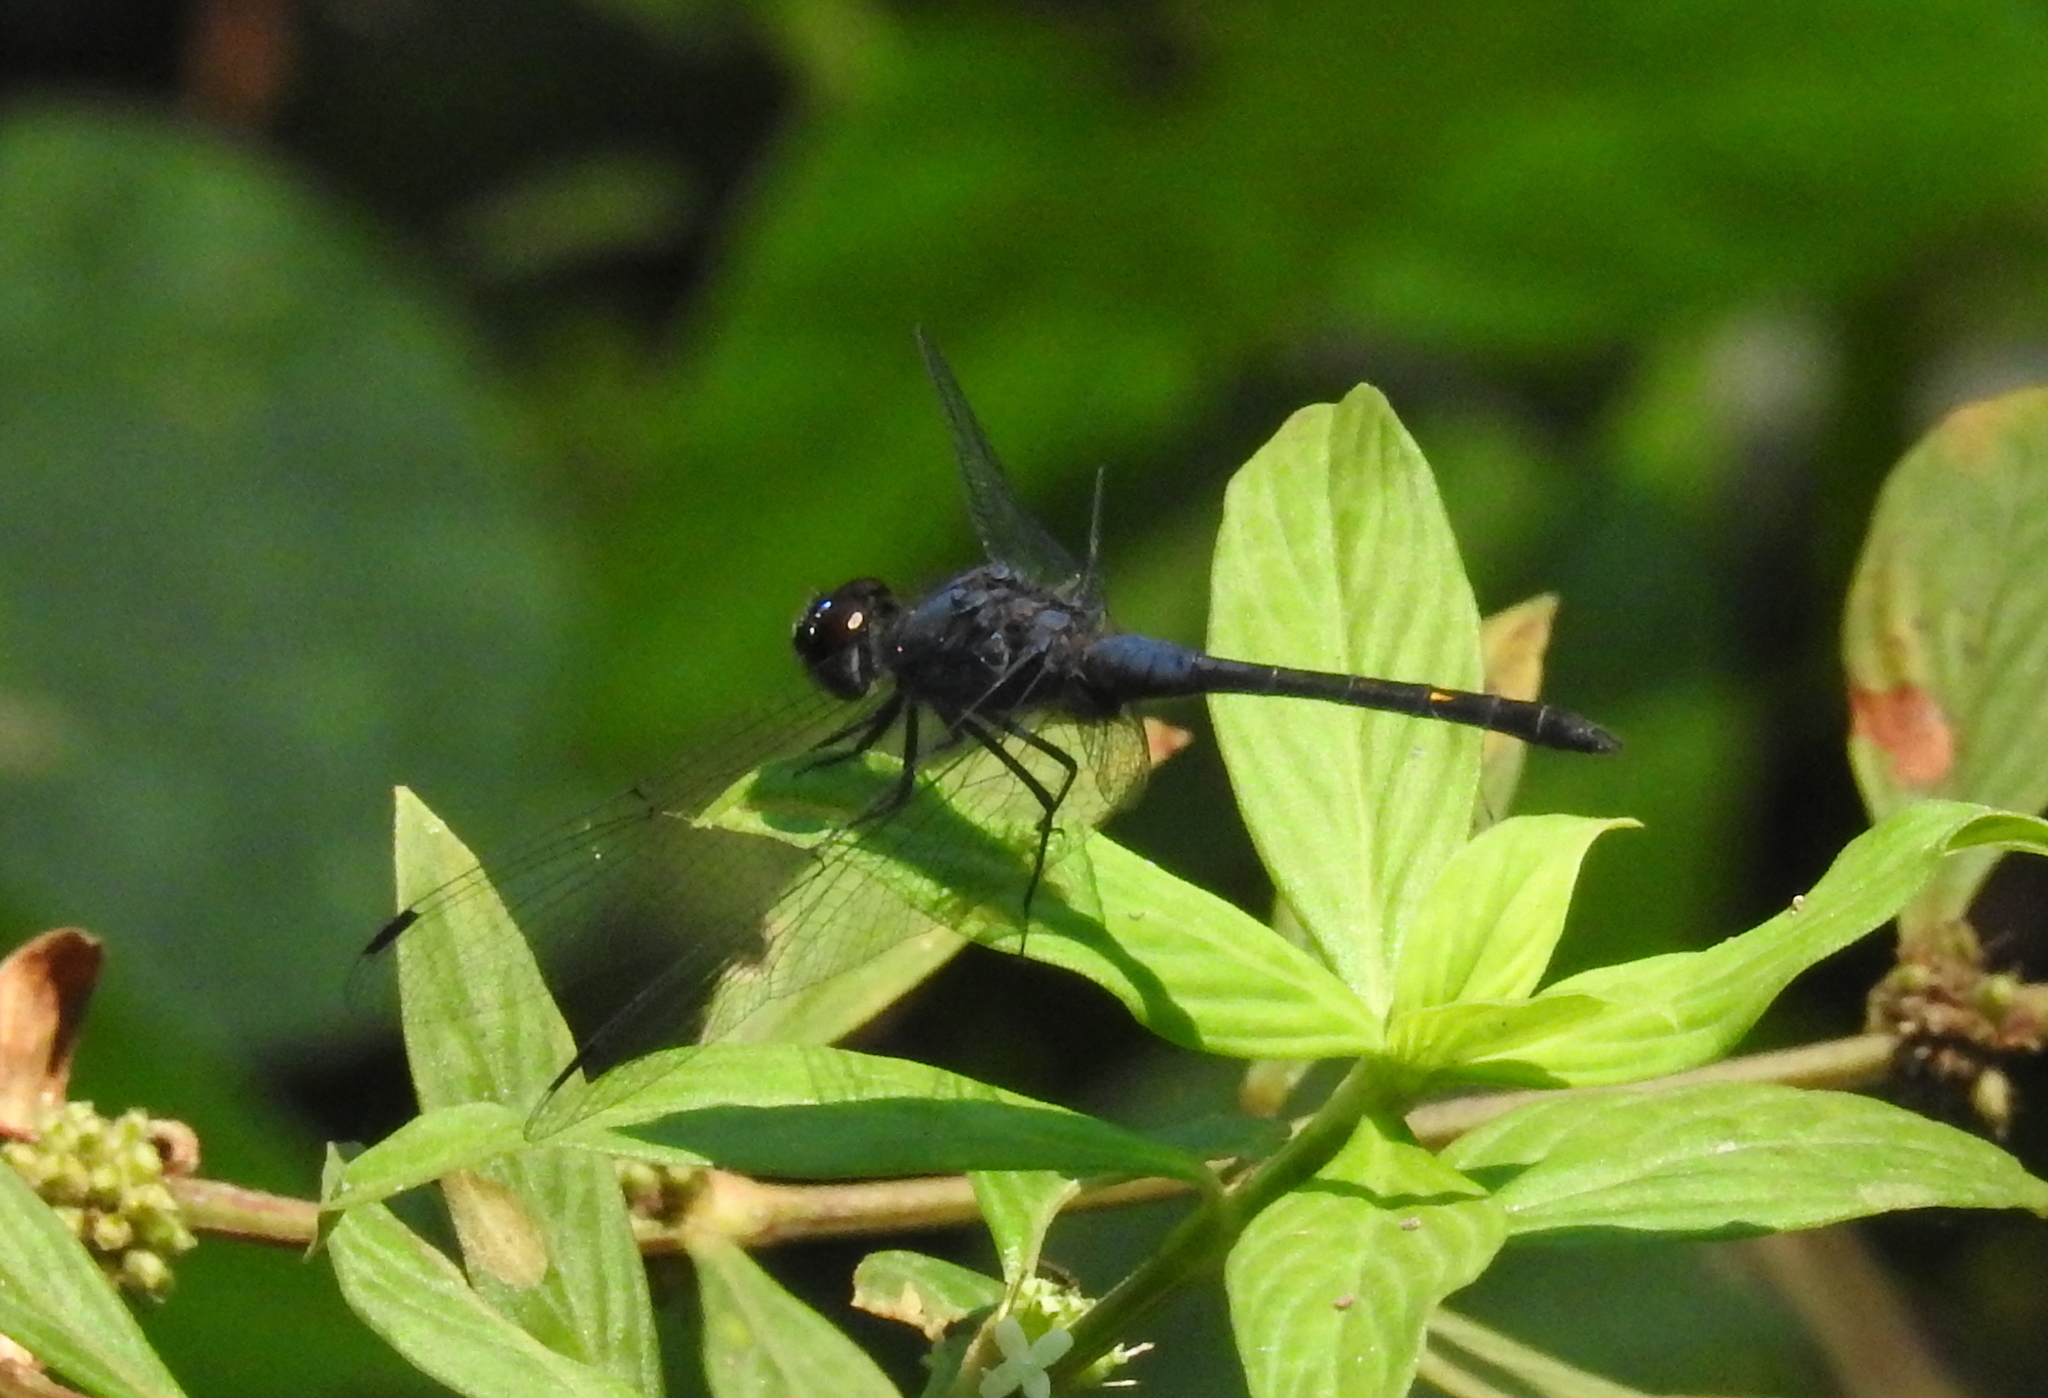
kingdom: Animalia
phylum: Arthropoda
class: Insecta
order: Odonata
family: Libellulidae
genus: Trithemis
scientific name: Trithemis festiva
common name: Indigo dropwing
